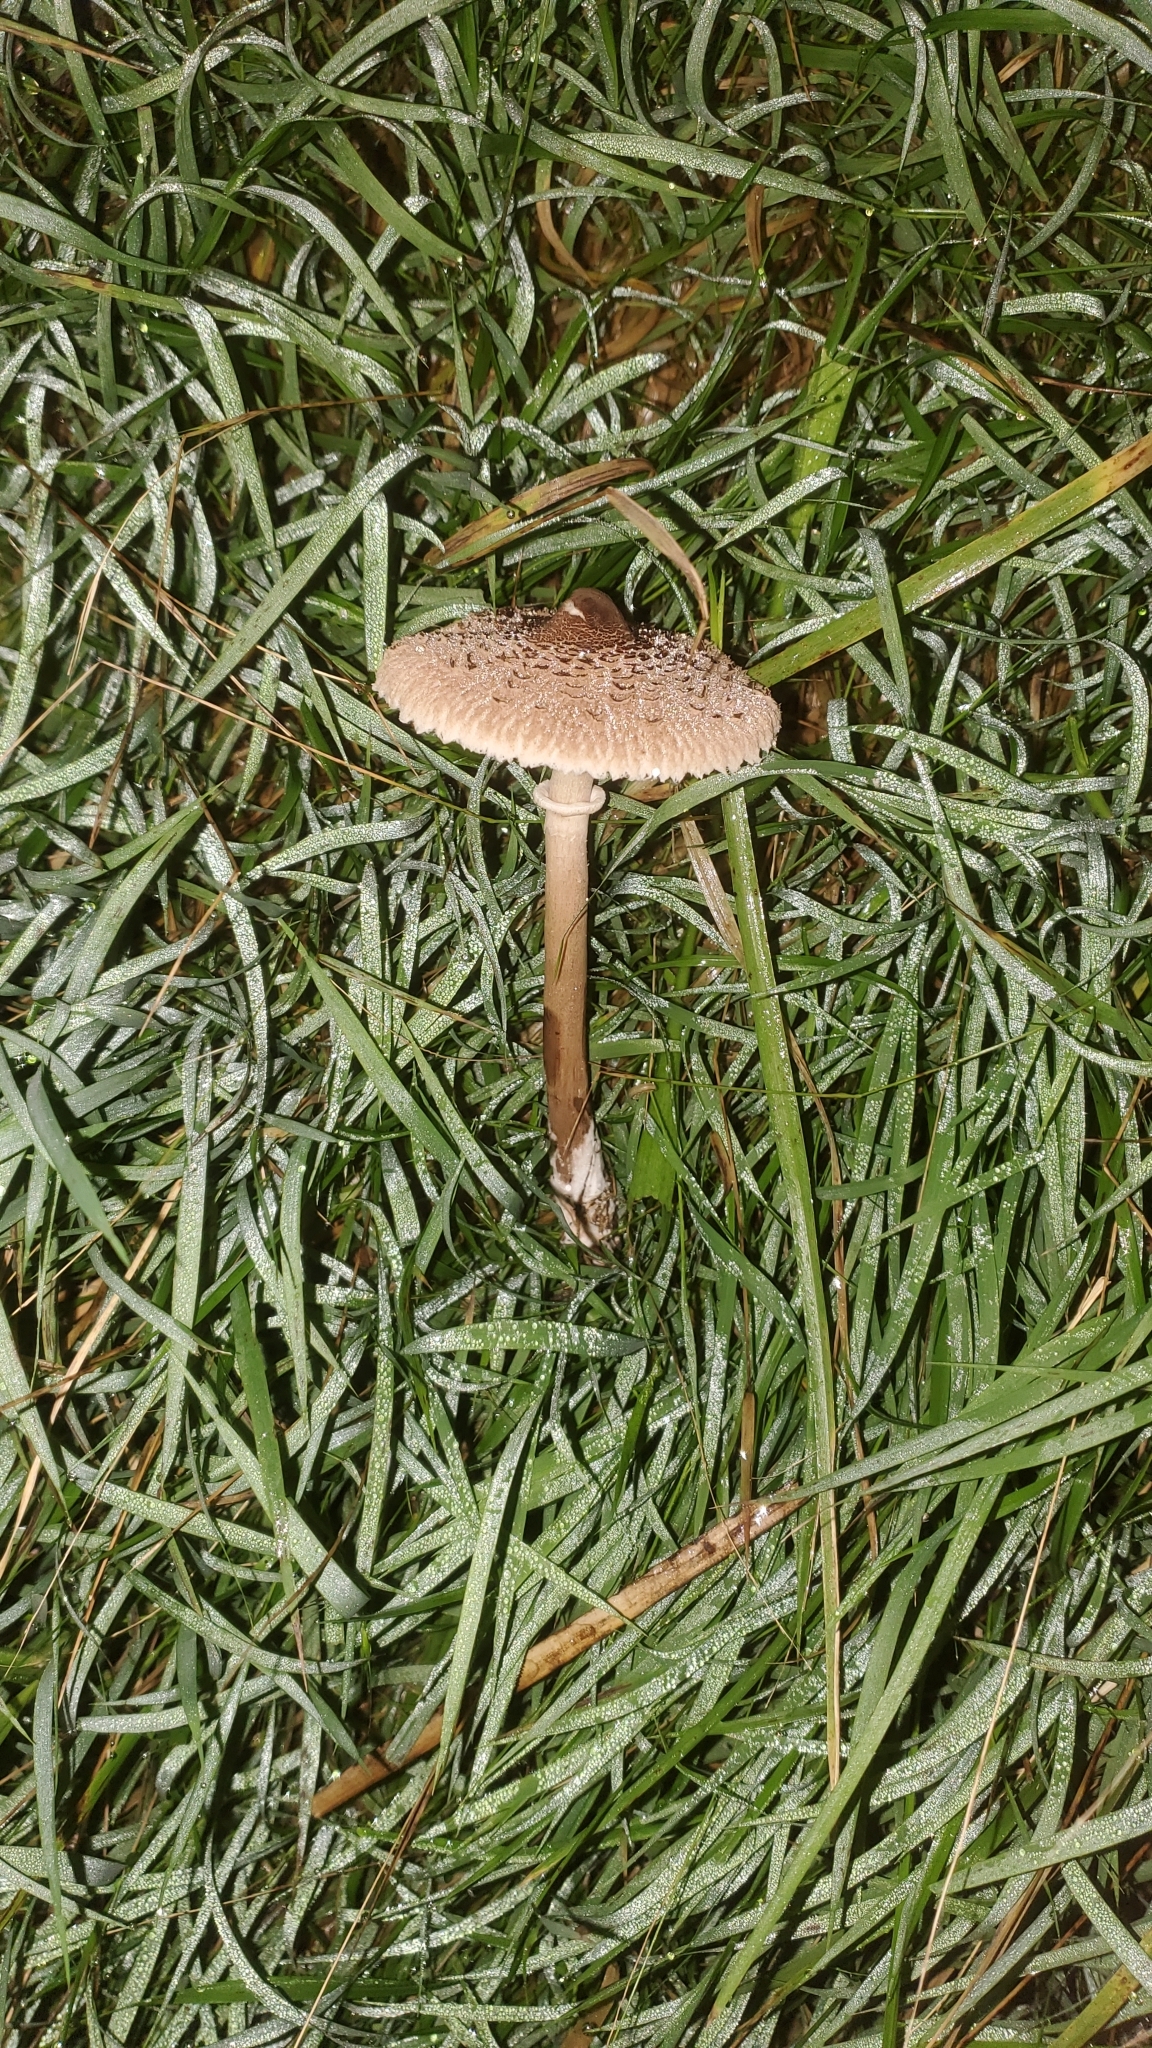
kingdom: Fungi
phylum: Basidiomycota
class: Agaricomycetes
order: Agaricales
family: Agaricaceae
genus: Macrolepiota
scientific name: Macrolepiota clelandii
